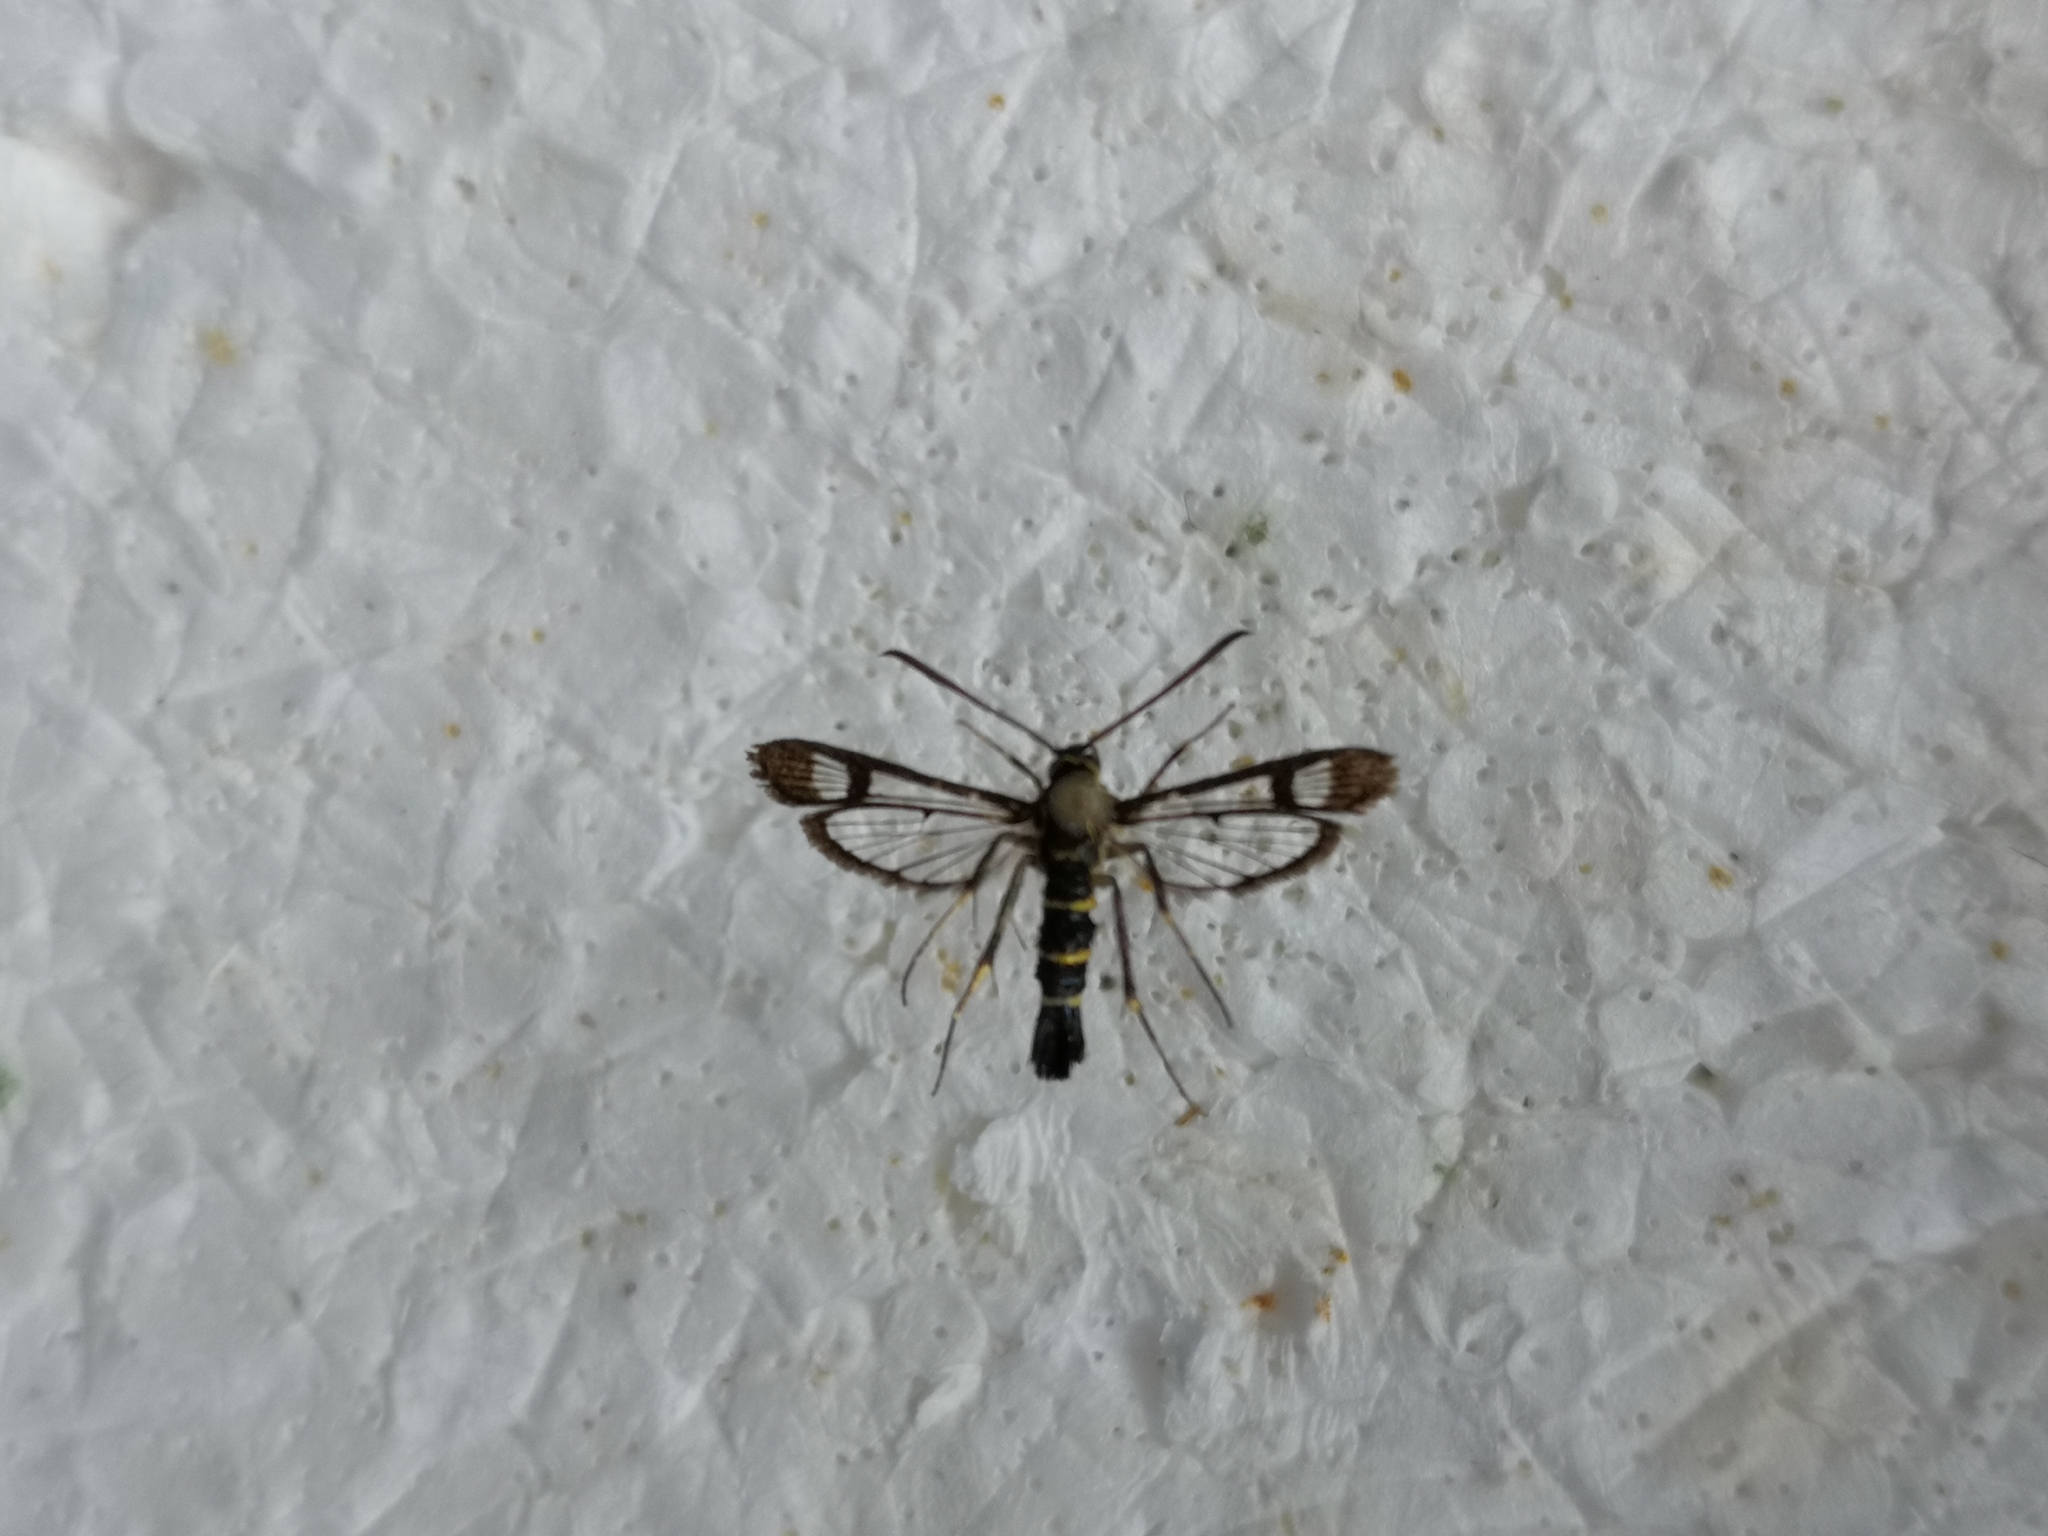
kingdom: Animalia
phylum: Arthropoda
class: Insecta
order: Lepidoptera
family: Sesiidae
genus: Synanthedon
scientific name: Synanthedon spuleri
